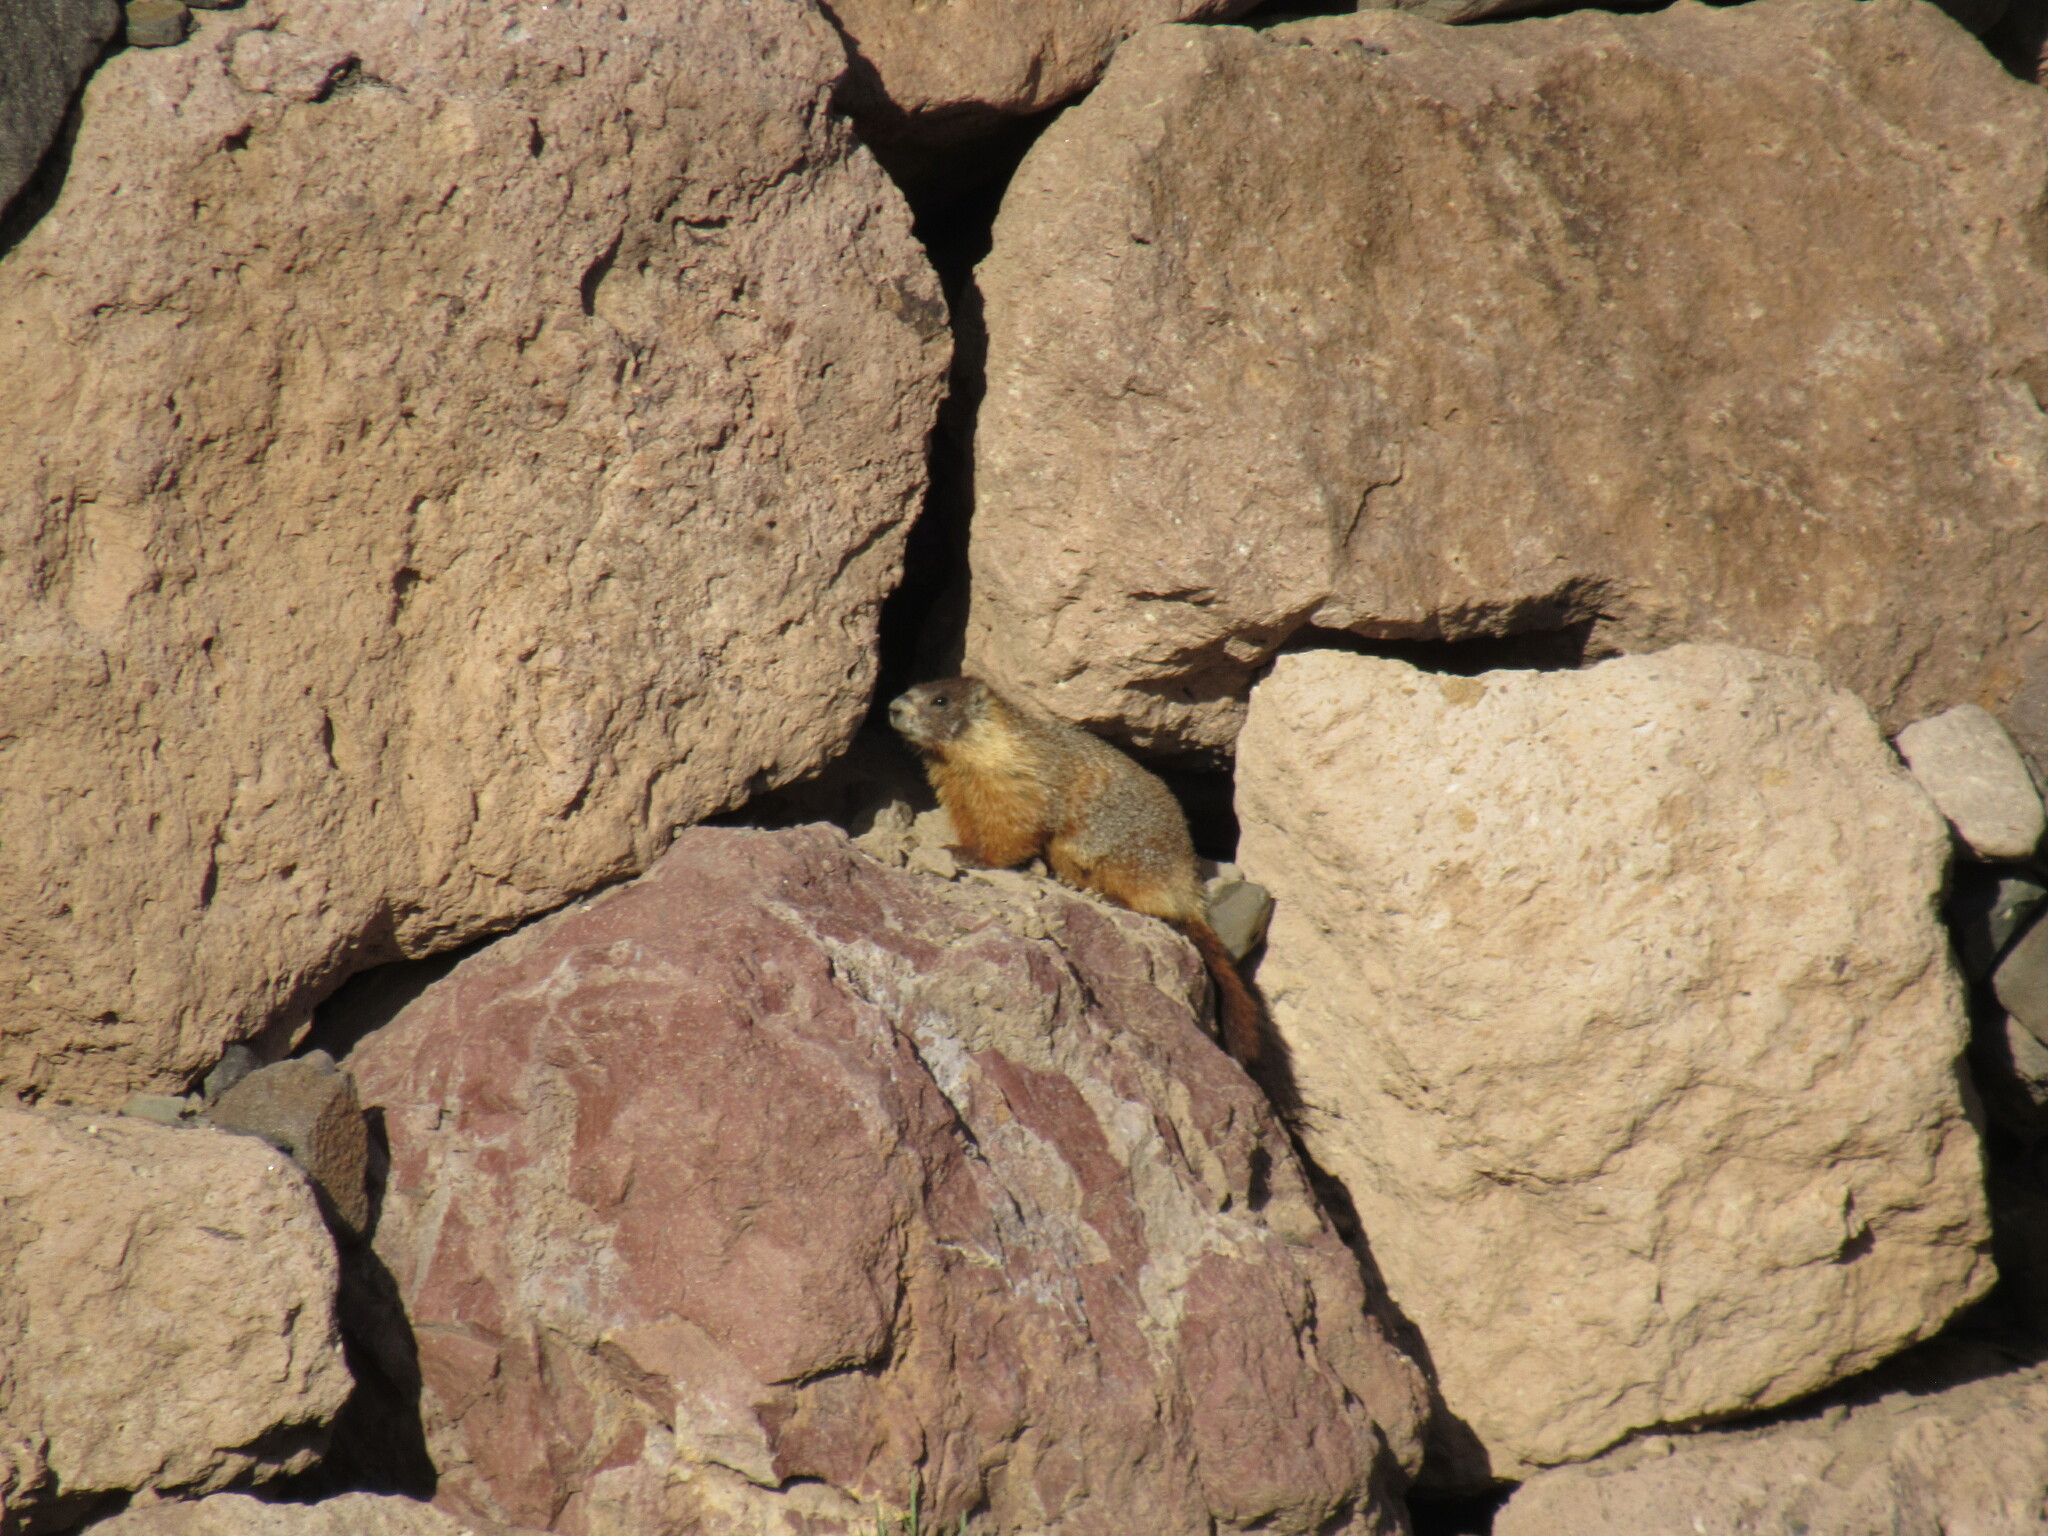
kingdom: Animalia
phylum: Chordata
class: Mammalia
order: Rodentia
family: Sciuridae
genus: Marmota
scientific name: Marmota flaviventris
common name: Yellow-bellied marmot
